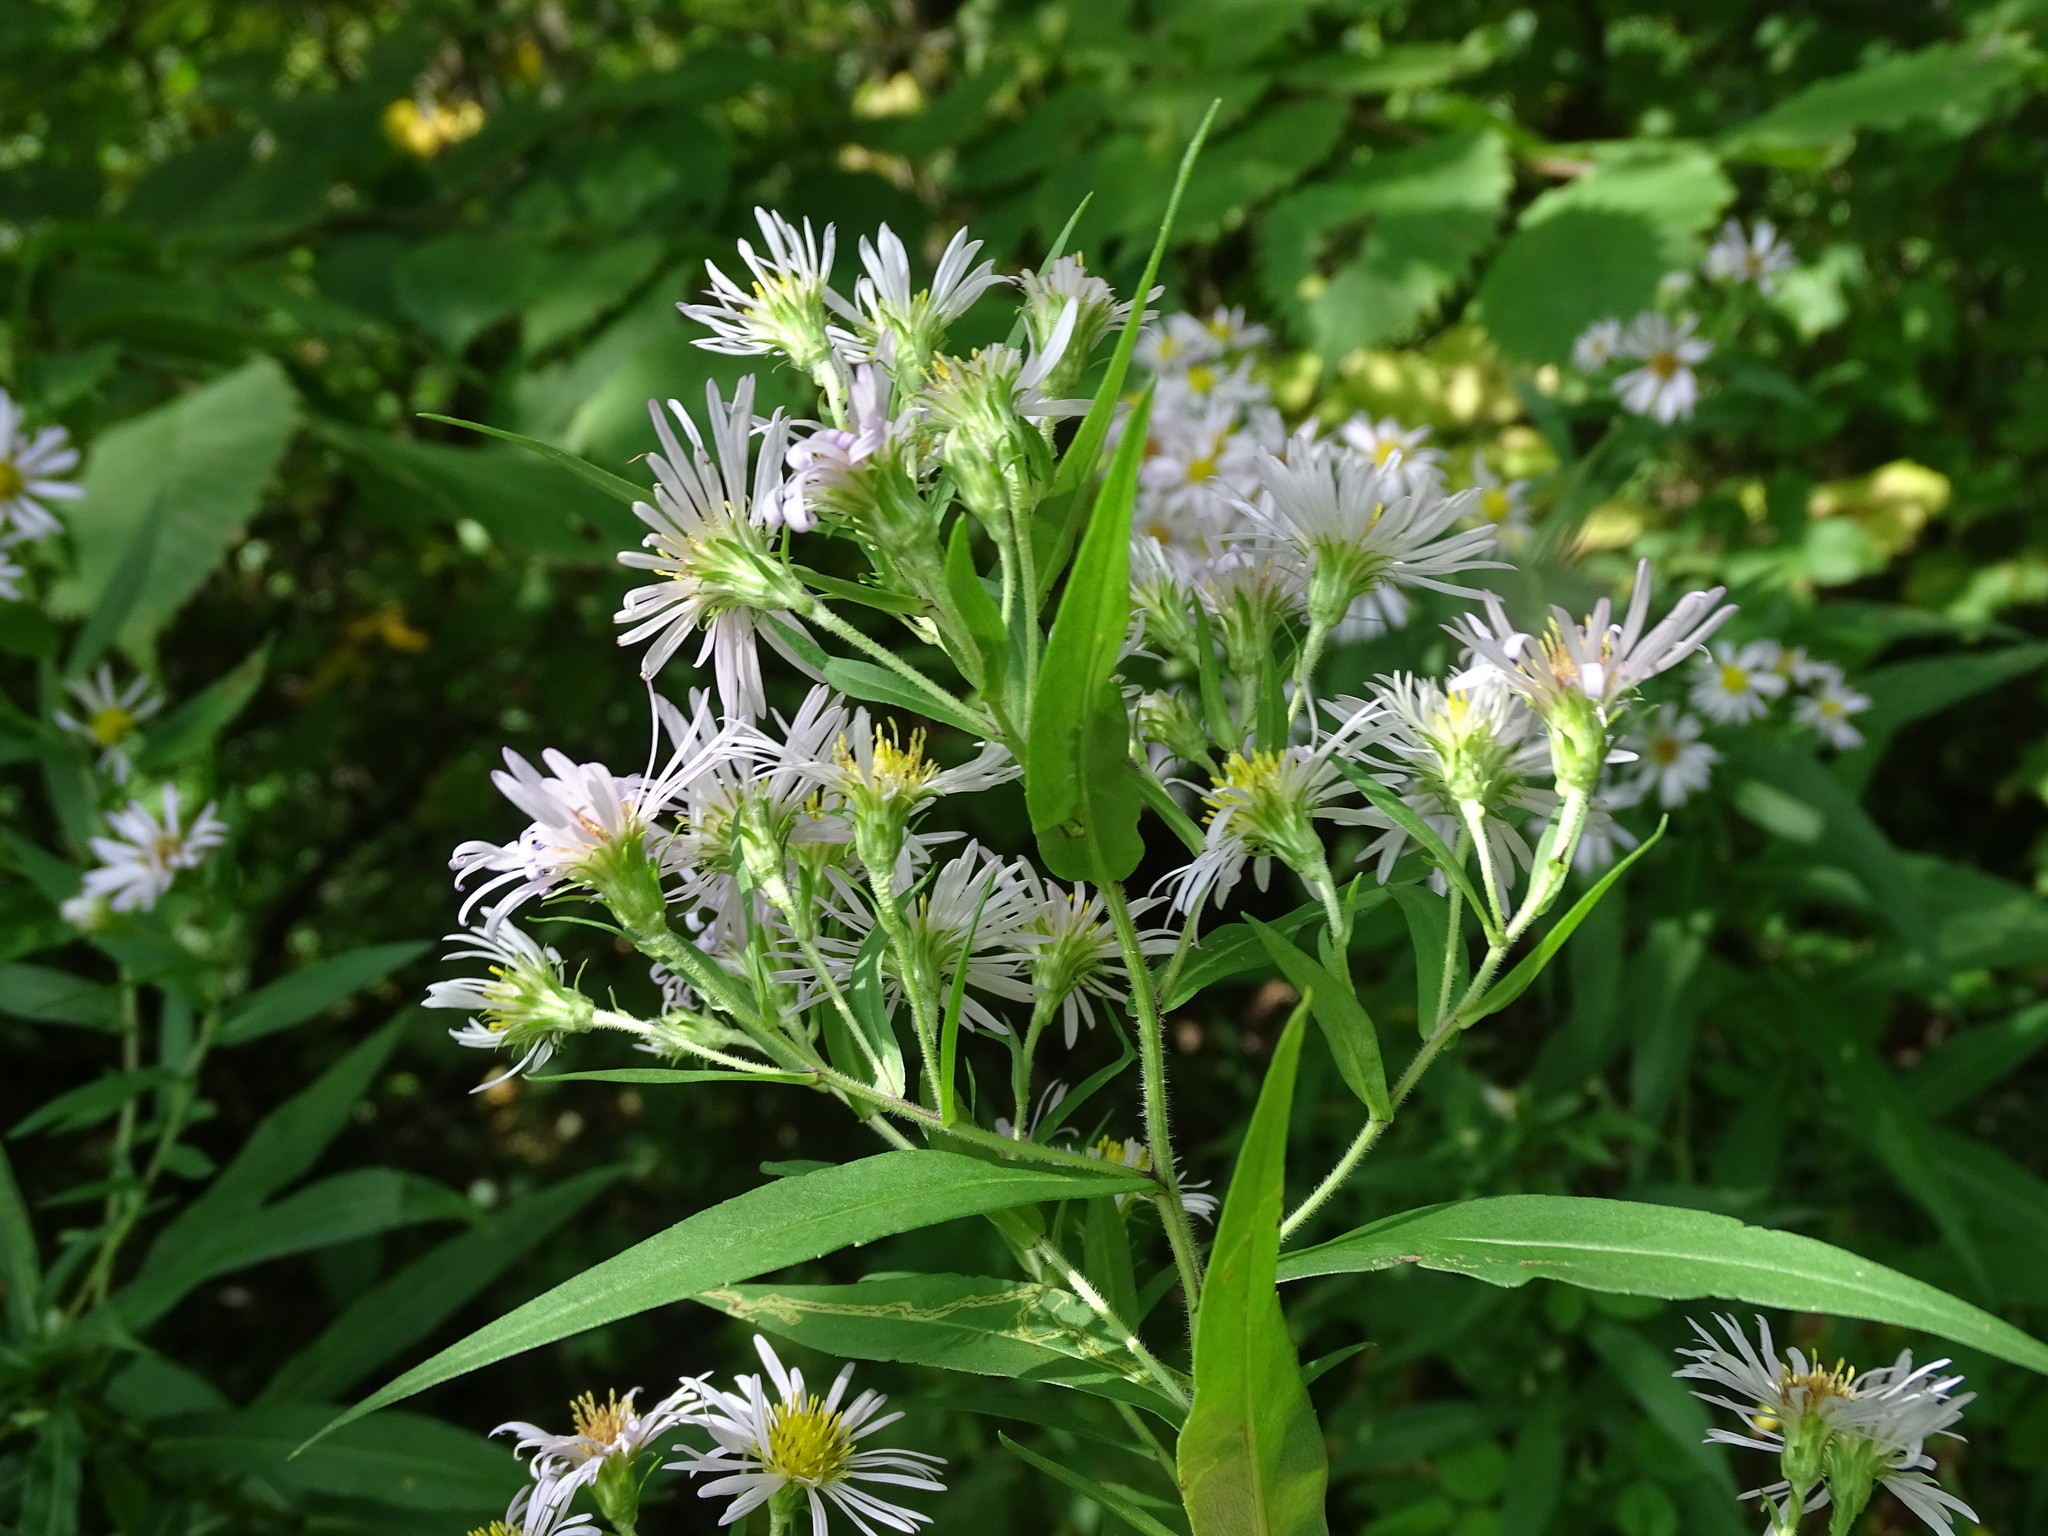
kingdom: Plantae
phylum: Tracheophyta
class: Magnoliopsida
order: Asterales
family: Asteraceae
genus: Symphyotrichum
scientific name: Symphyotrichum firmum
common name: Shining aster
